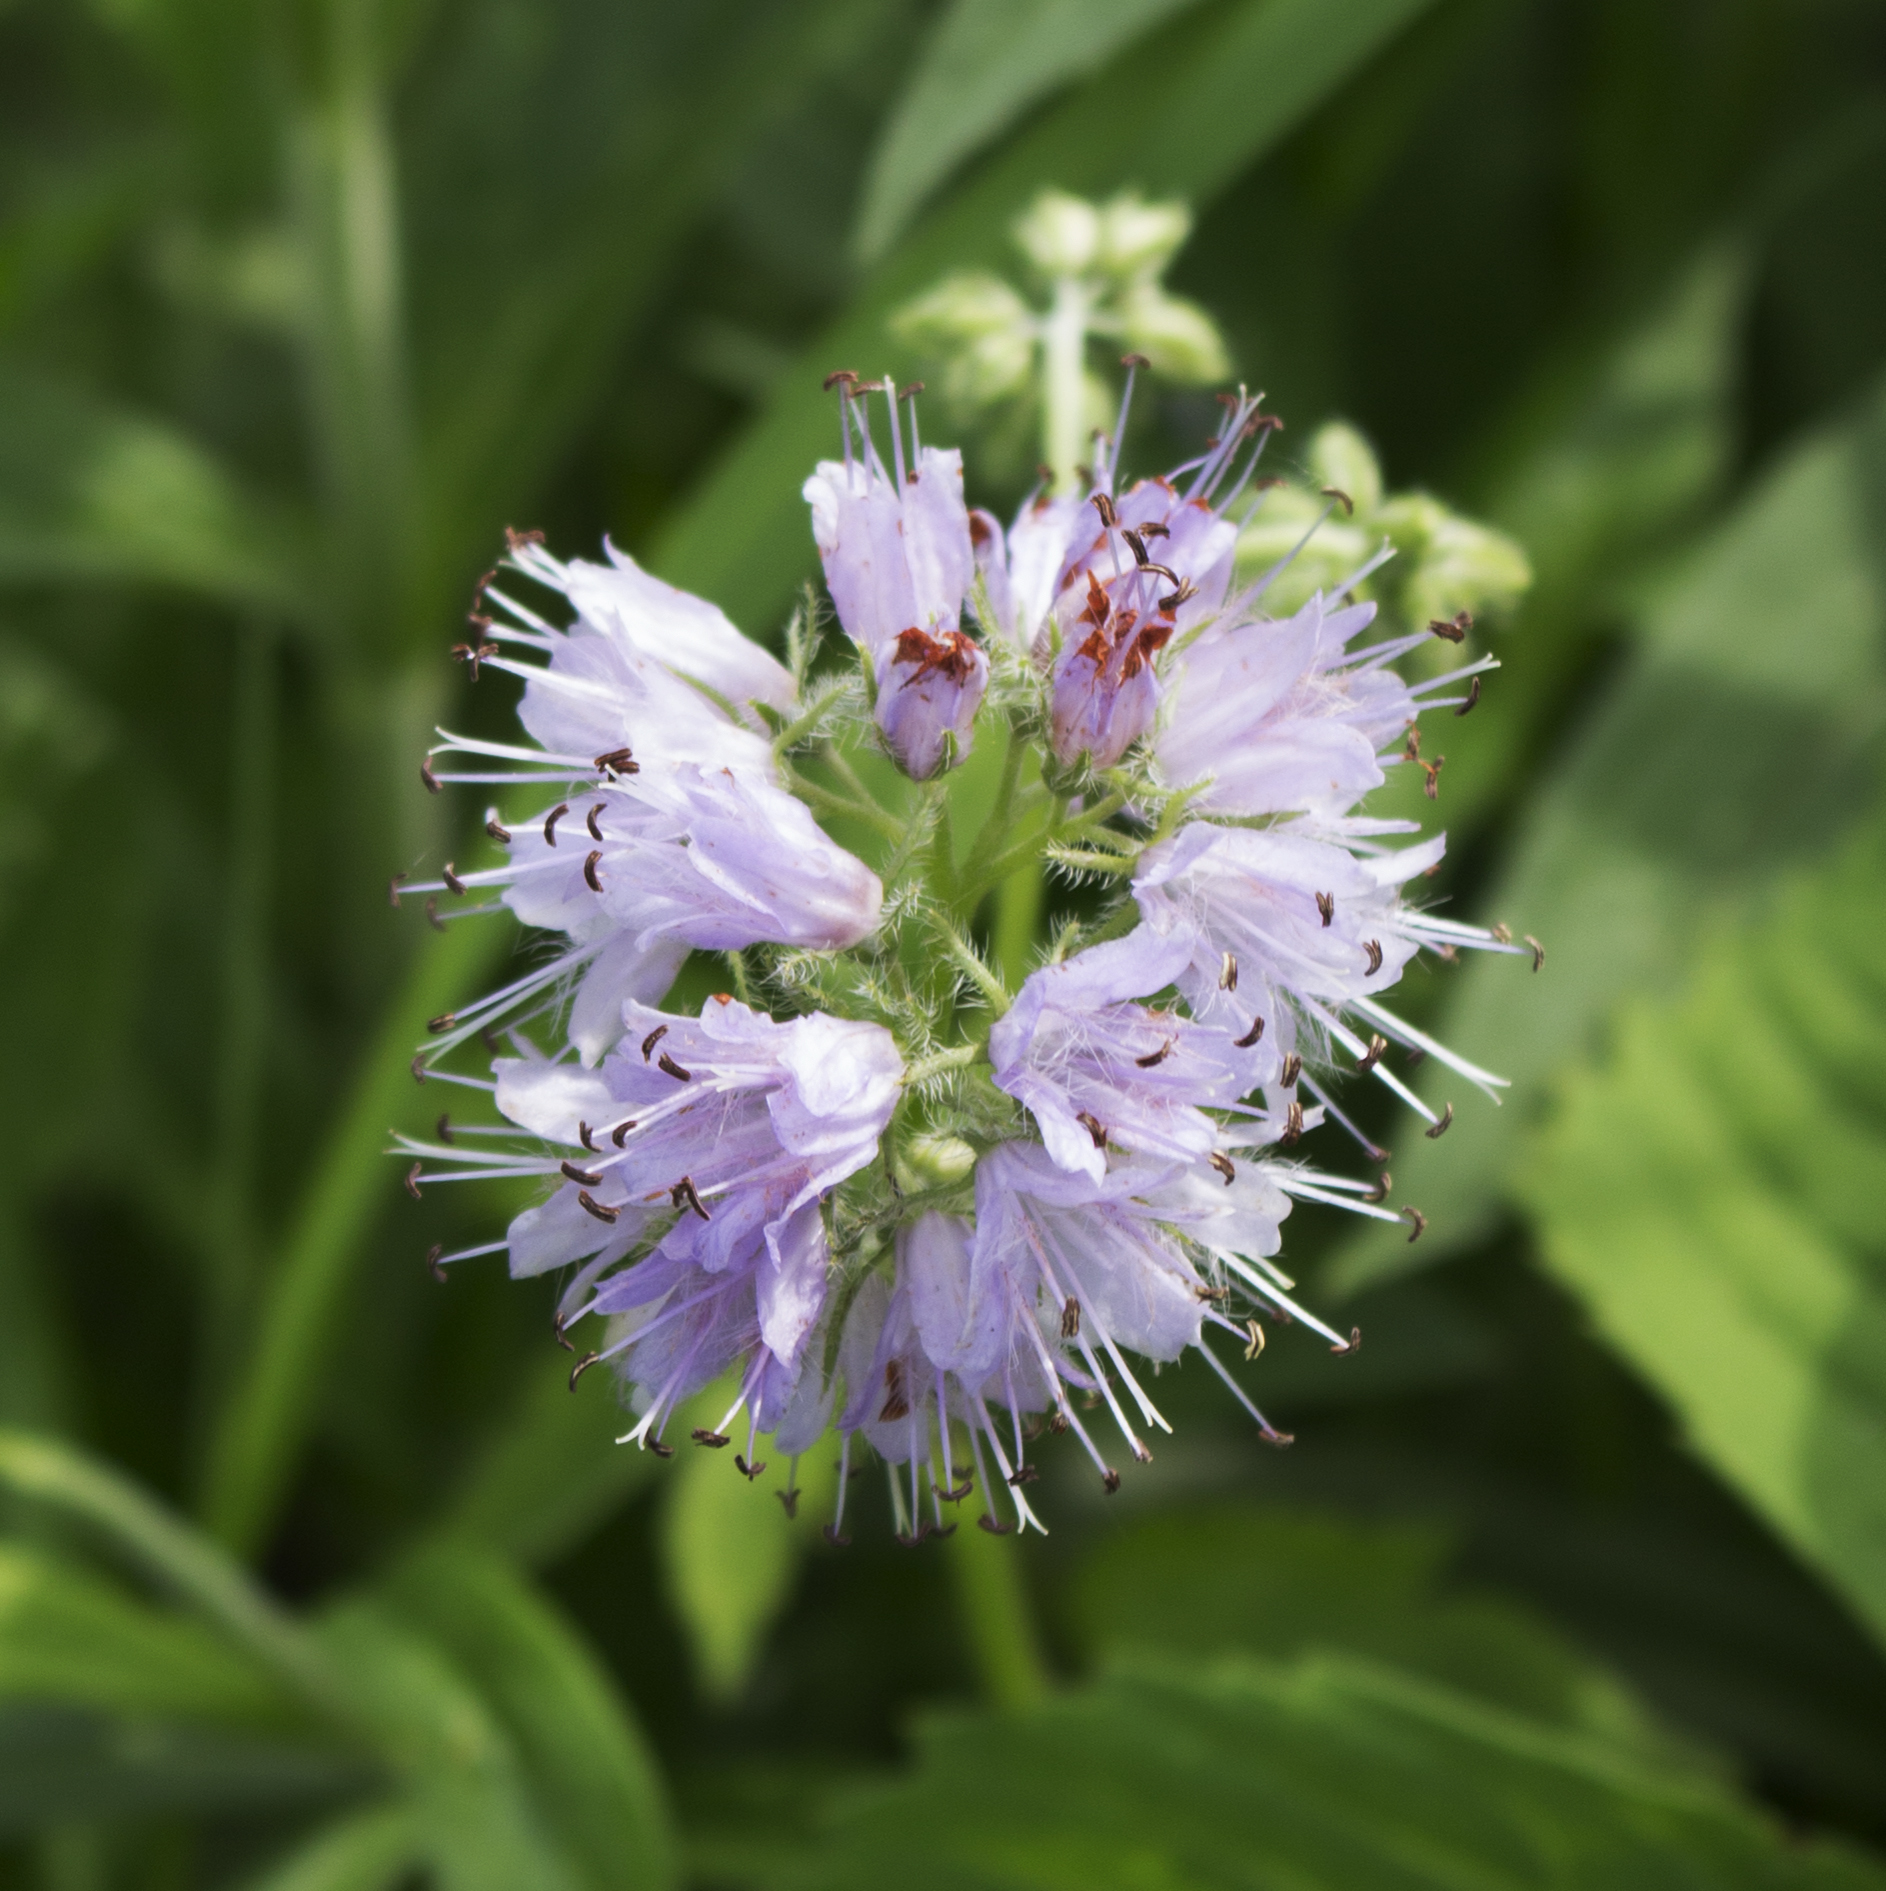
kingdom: Plantae
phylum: Tracheophyta
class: Magnoliopsida
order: Boraginales
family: Hydrophyllaceae
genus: Hydrophyllum
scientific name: Hydrophyllum virginianum
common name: Virginia waterleaf
